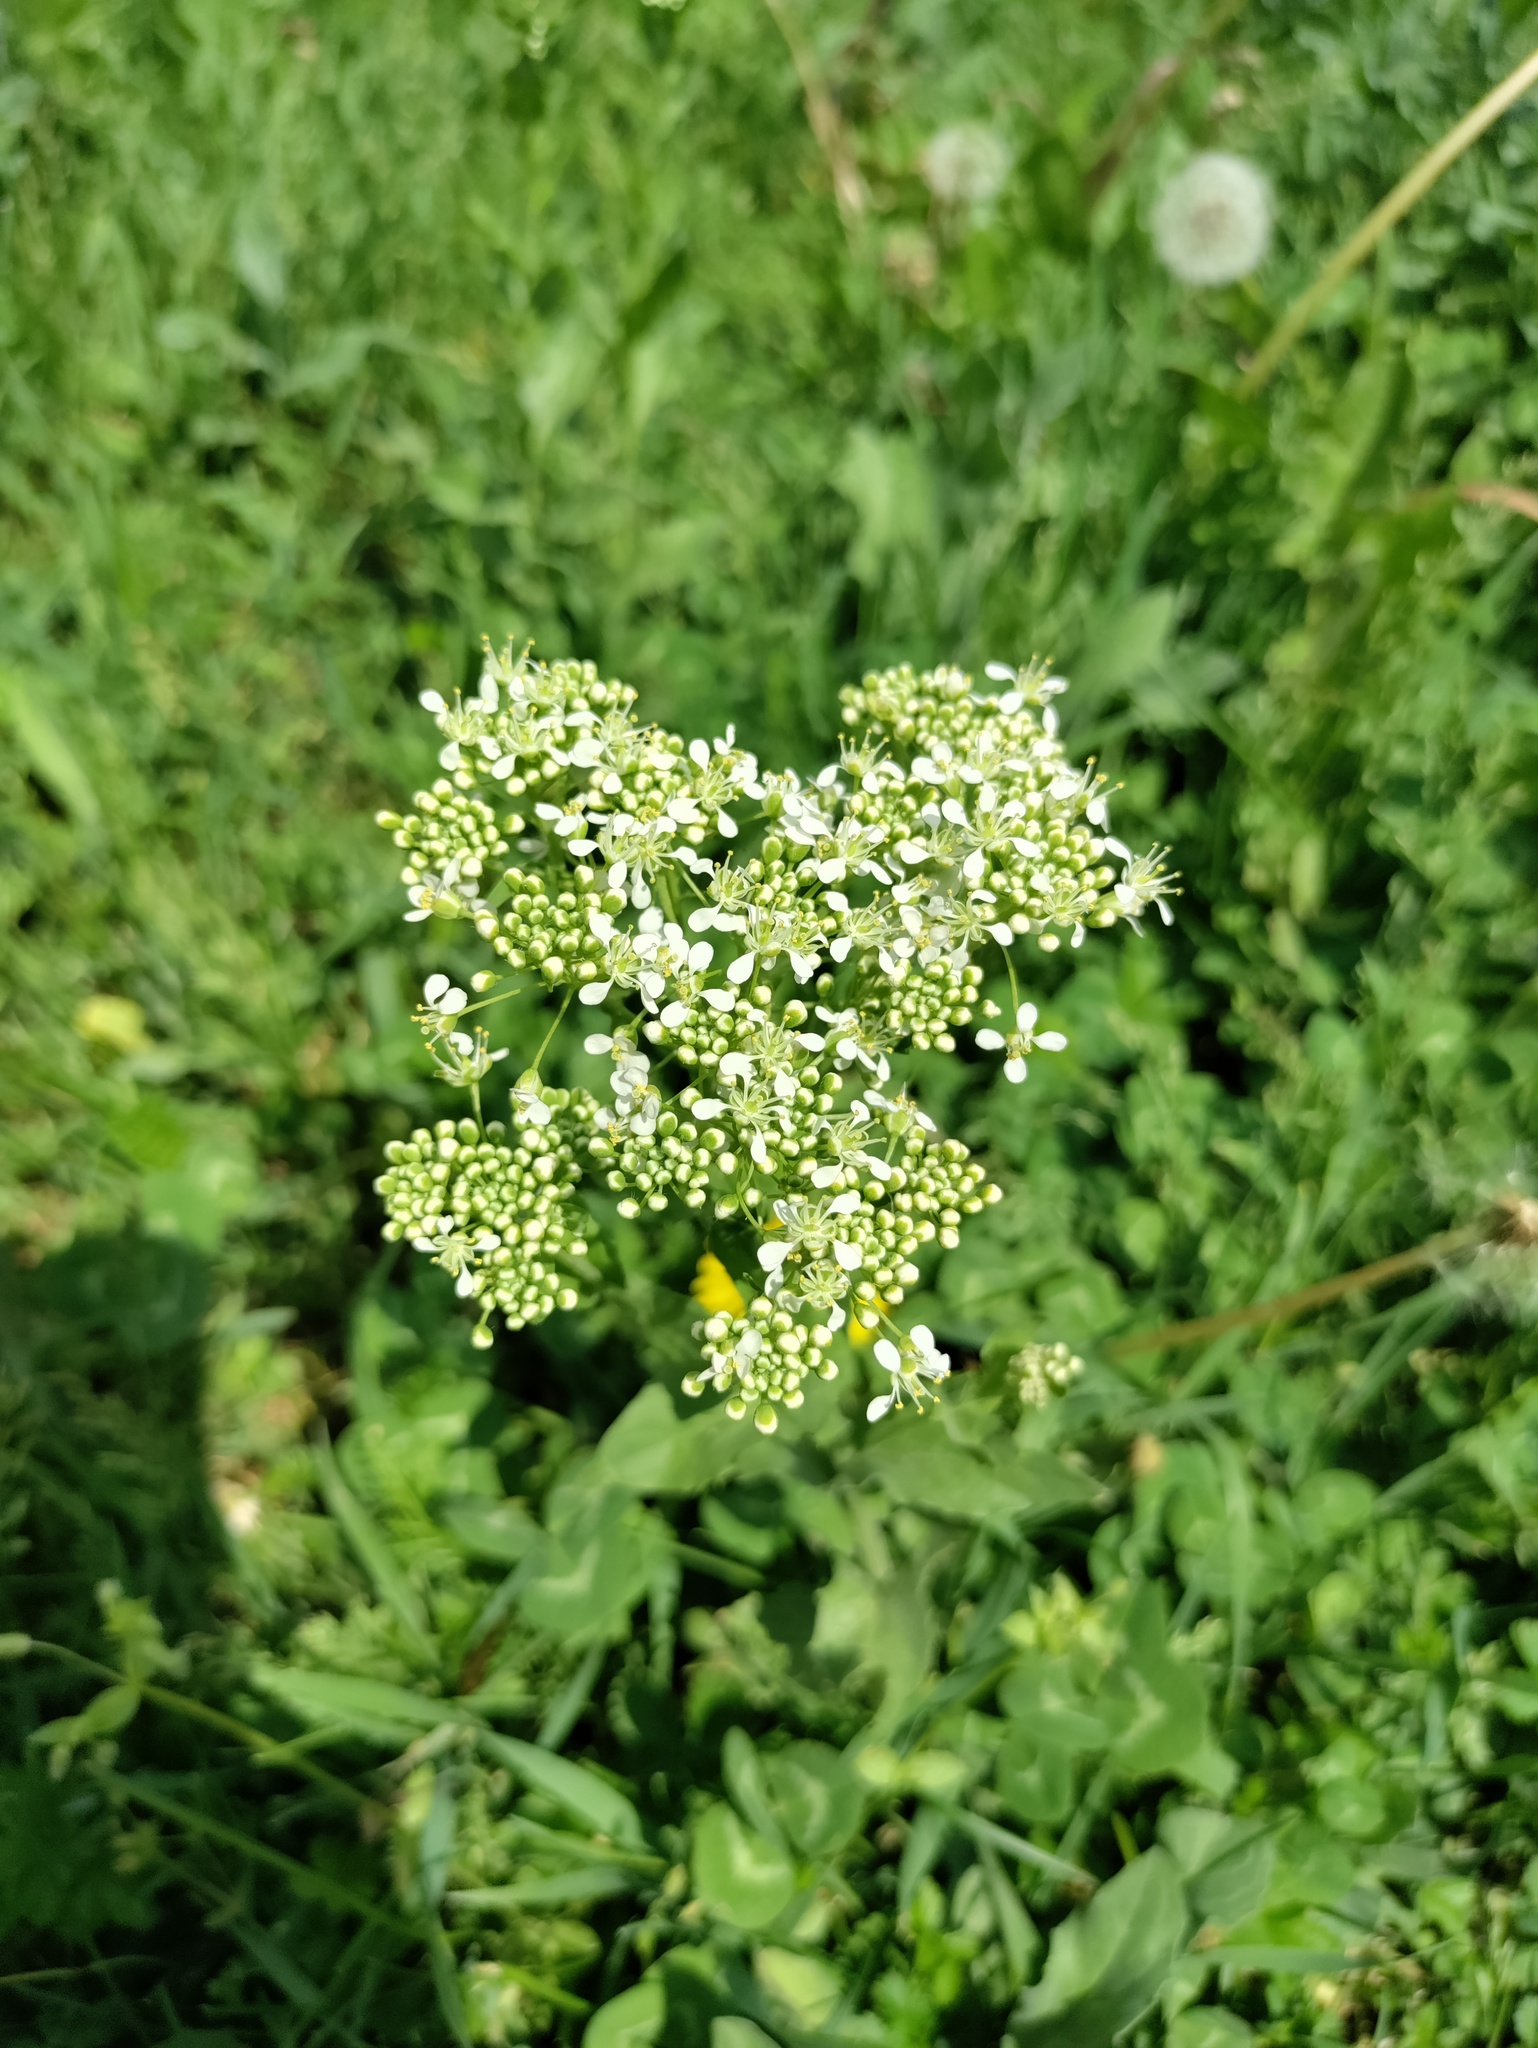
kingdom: Plantae
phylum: Tracheophyta
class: Magnoliopsida
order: Brassicales
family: Brassicaceae
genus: Lepidium
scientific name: Lepidium draba
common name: Hoary cress
